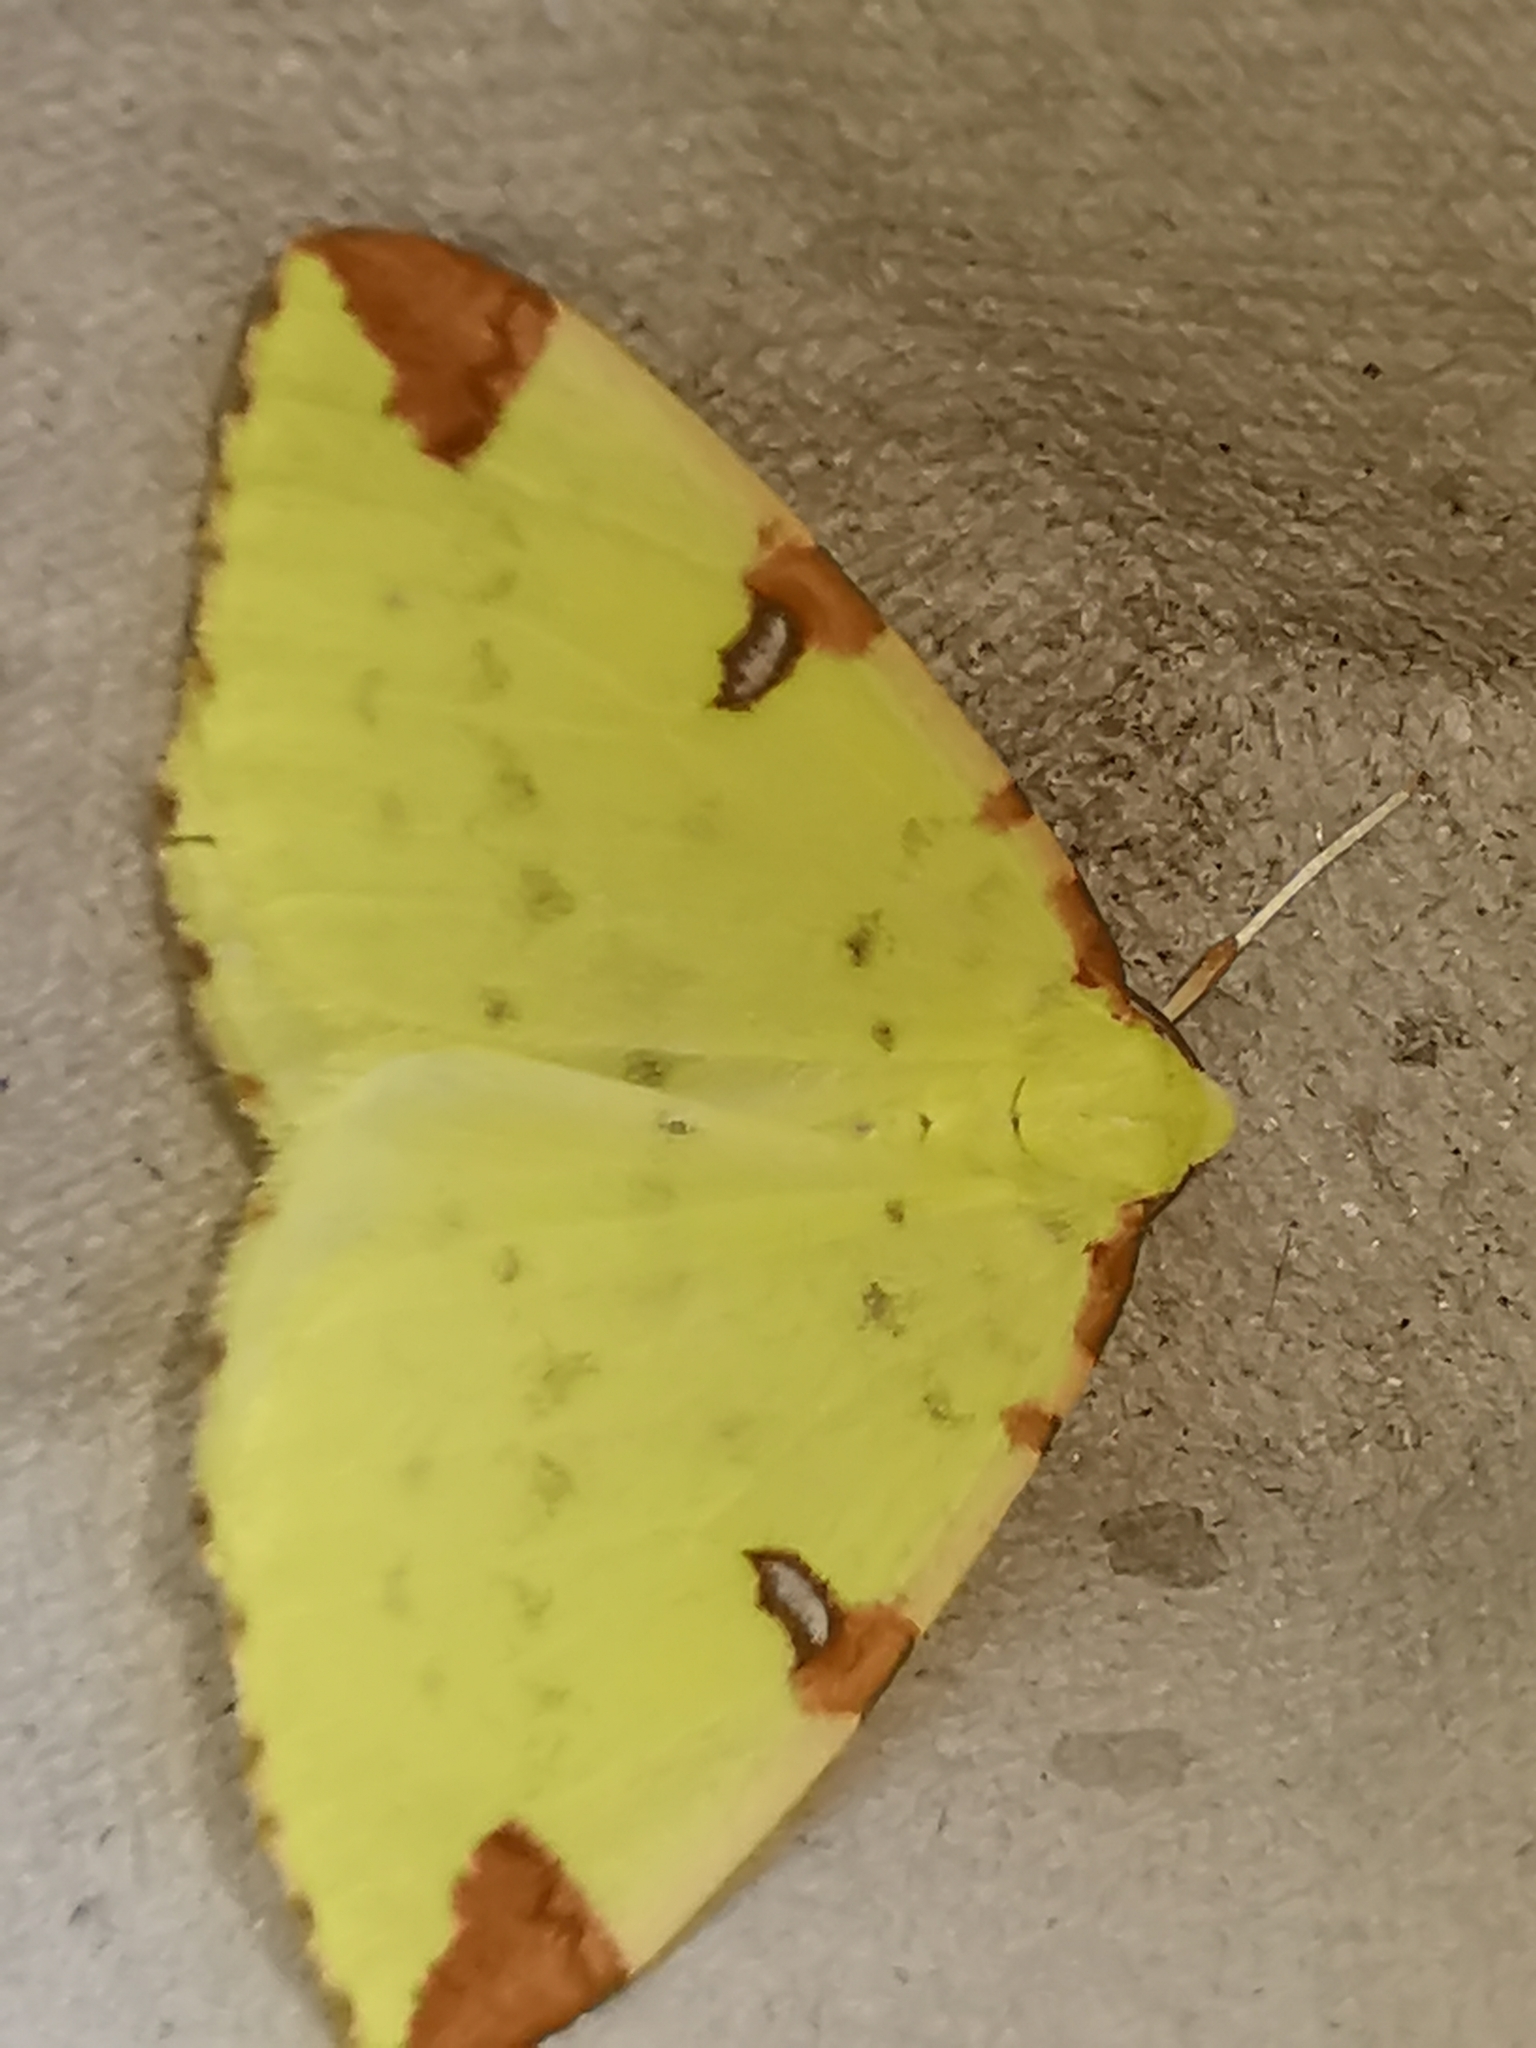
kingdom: Animalia
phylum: Arthropoda
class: Insecta
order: Lepidoptera
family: Geometridae
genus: Opisthograptis
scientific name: Opisthograptis luteolata
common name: Brimstone moth
